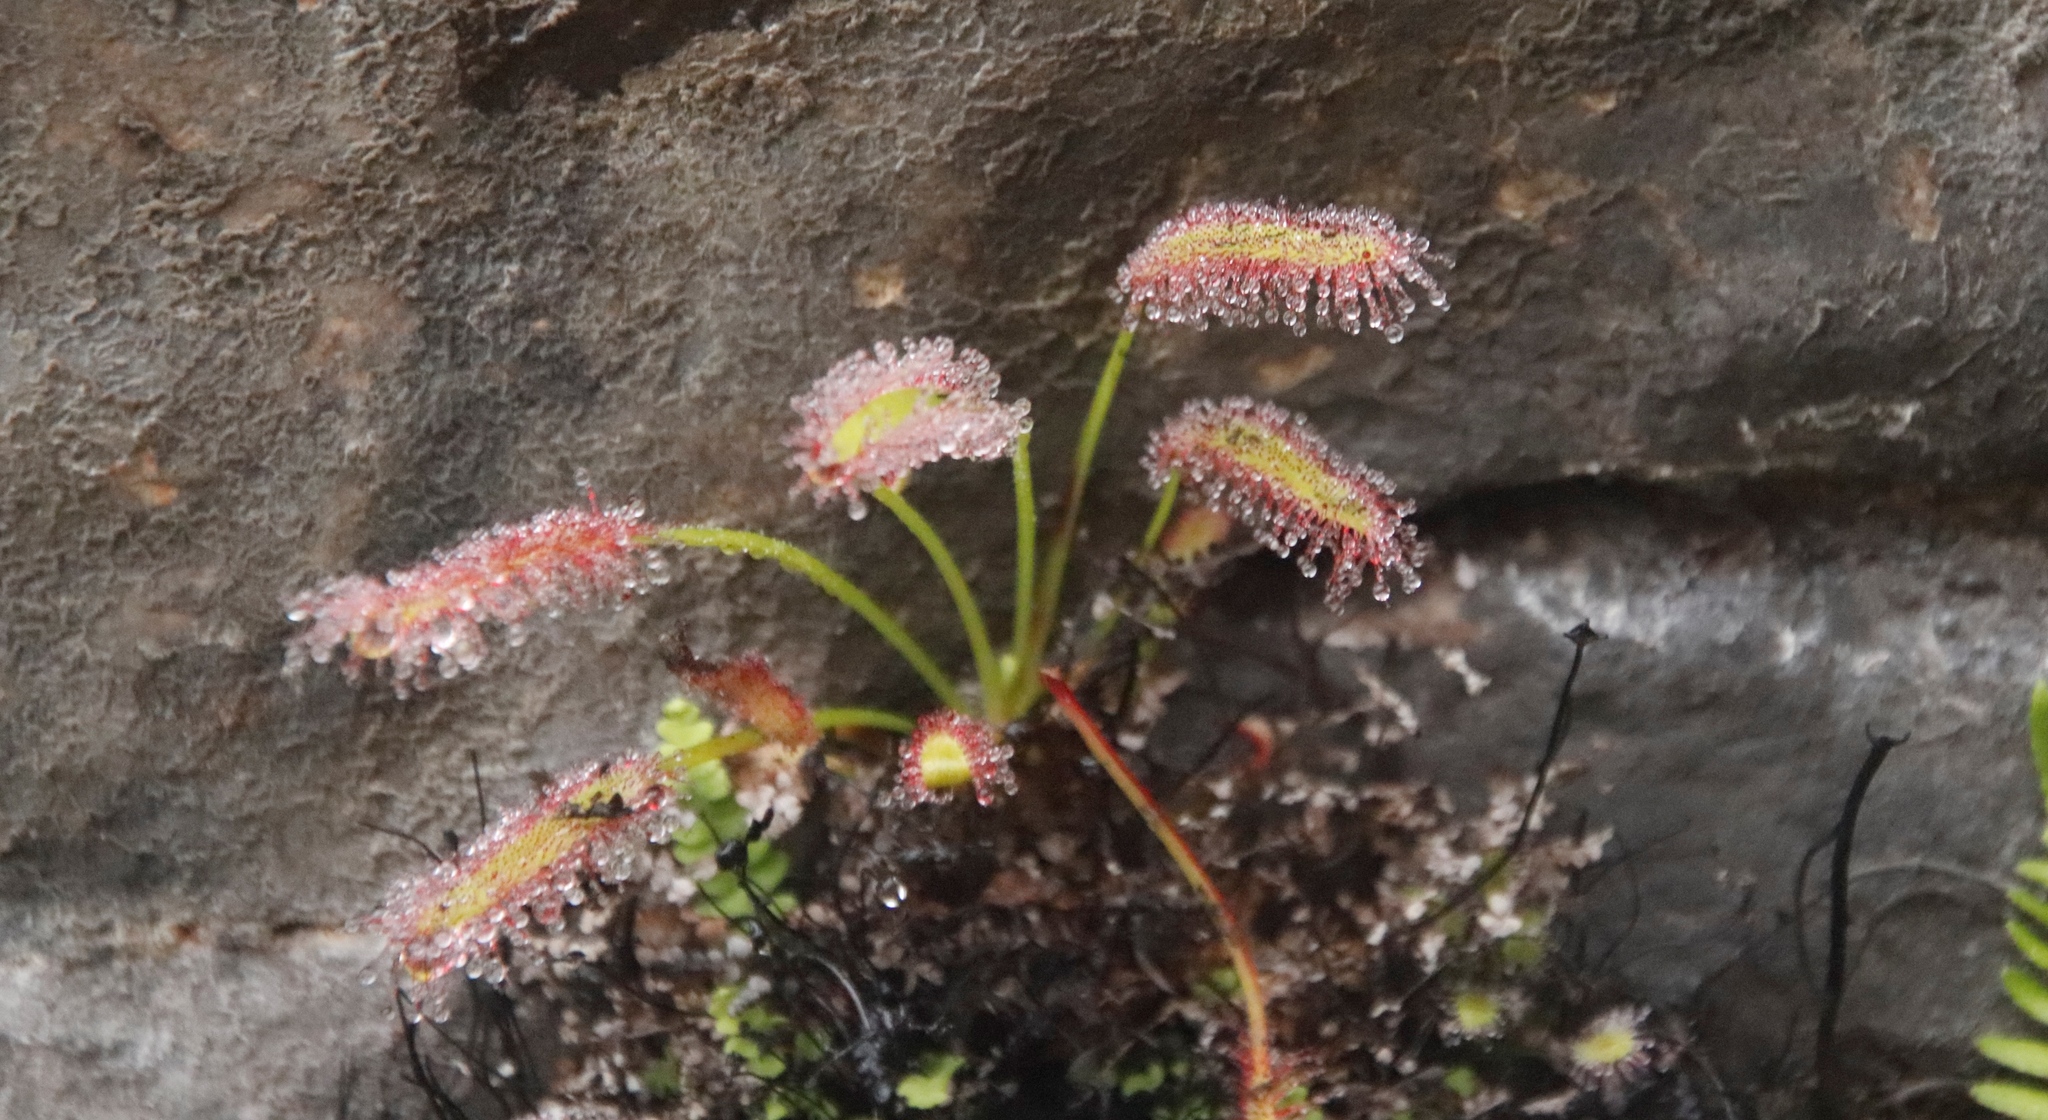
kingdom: Plantae
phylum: Tracheophyta
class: Magnoliopsida
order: Caryophyllales
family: Droseraceae
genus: Drosera
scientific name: Drosera capensis
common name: Cape sundew
